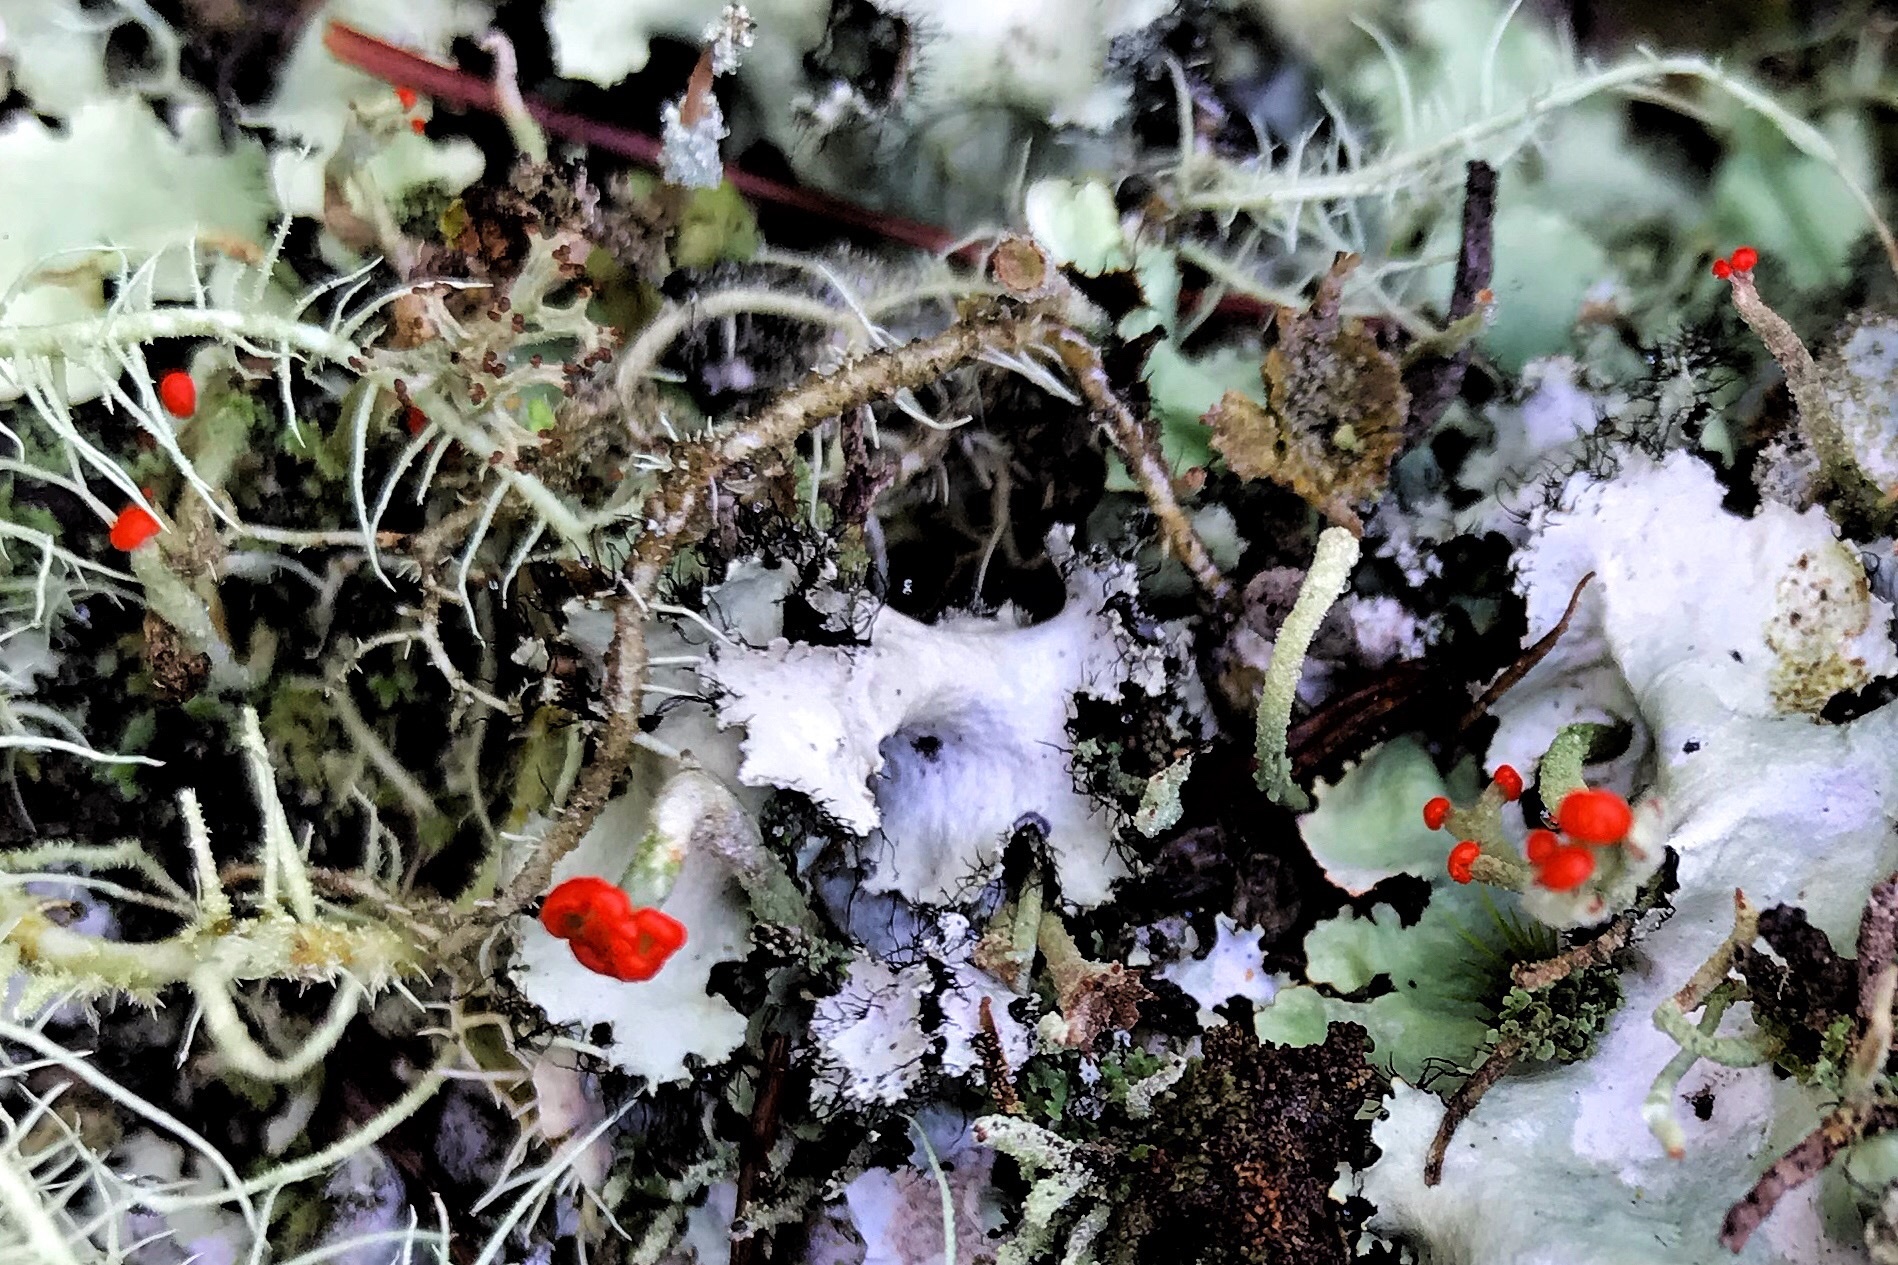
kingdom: Fungi
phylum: Ascomycota
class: Lecanoromycetes
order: Lecanorales
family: Cladoniaceae
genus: Cladonia
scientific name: Cladonia macilenta
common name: Lipstick powderhorn
